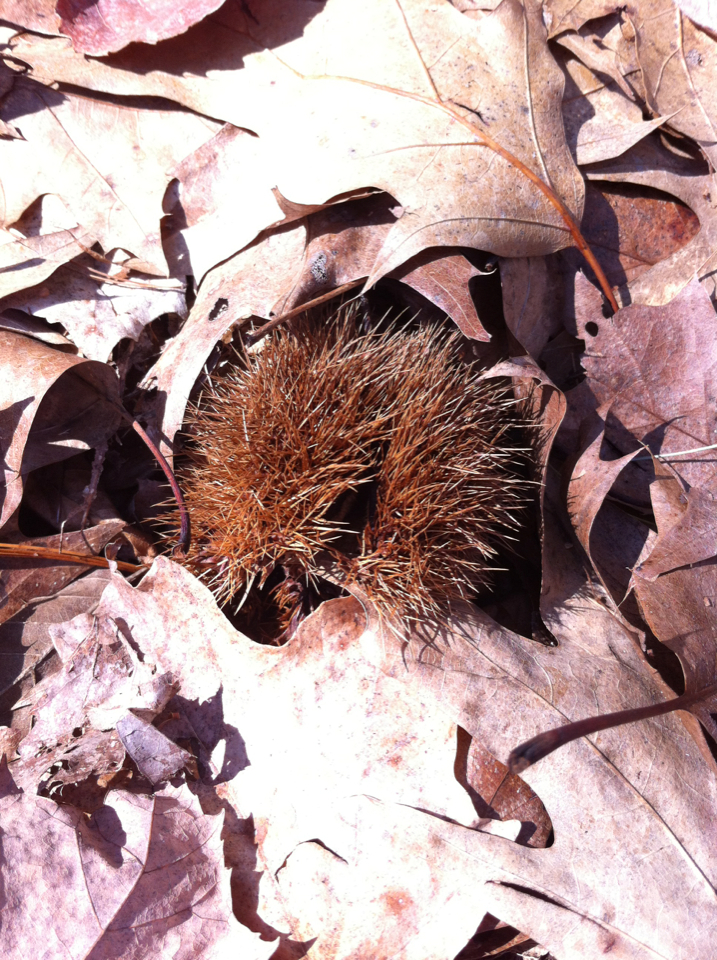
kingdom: Plantae
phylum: Tracheophyta
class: Magnoliopsida
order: Fagales
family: Fagaceae
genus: Castanea
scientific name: Castanea dentata
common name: American chestnut
